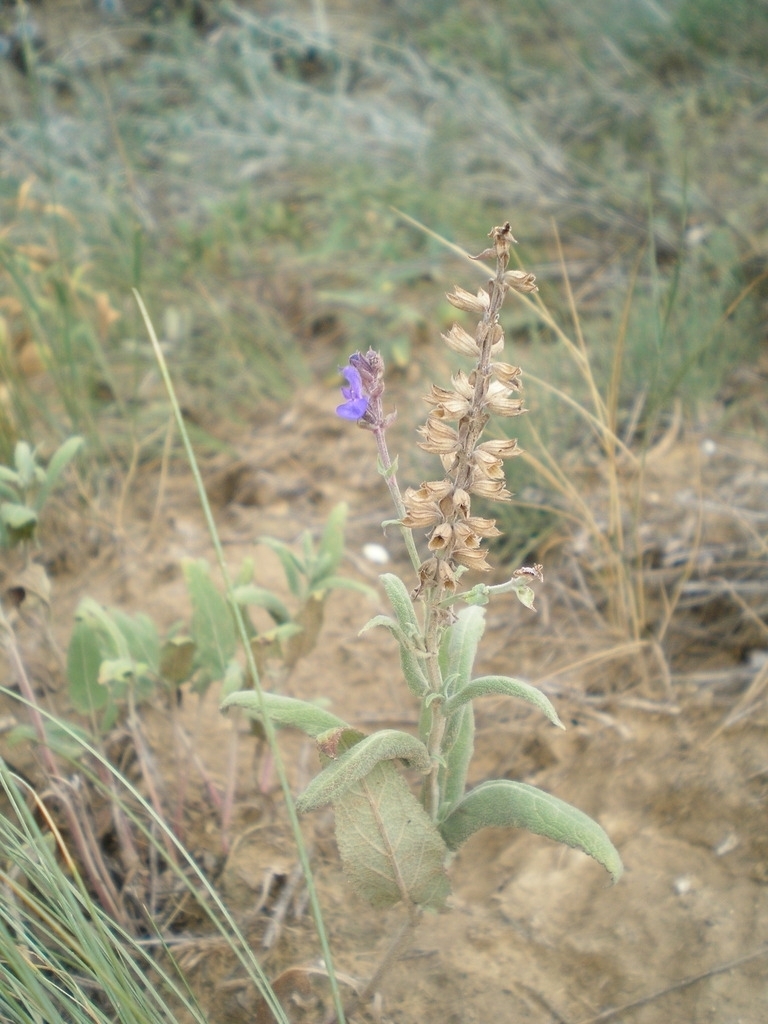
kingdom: Plantae
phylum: Tracheophyta
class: Magnoliopsida
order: Lamiales
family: Lamiaceae
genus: Salvia
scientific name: Salvia nemorosa
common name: Balkan clary
